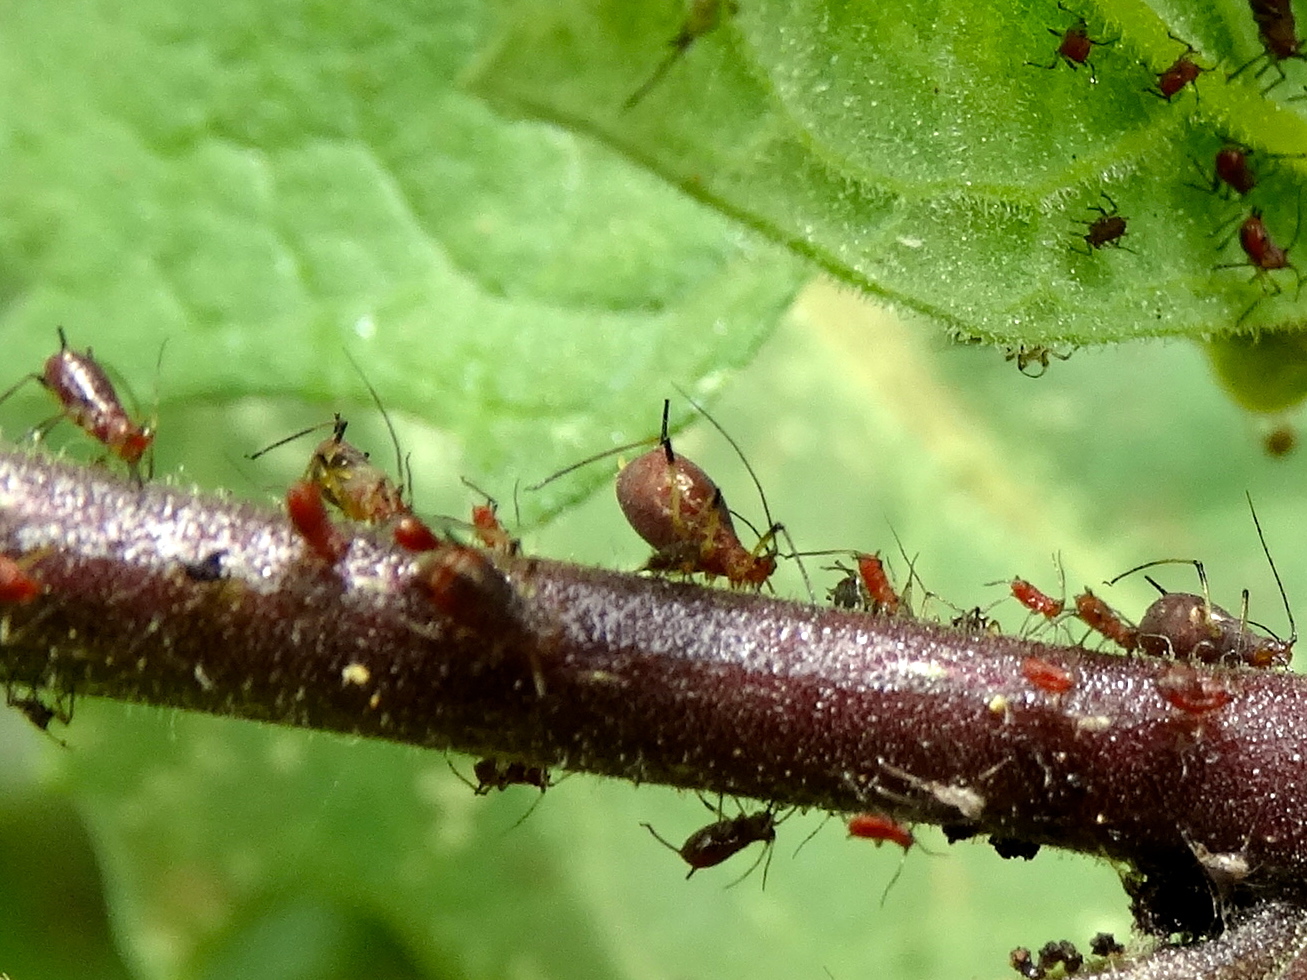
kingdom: Animalia
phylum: Arthropoda
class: Insecta
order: Hemiptera
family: Aphididae
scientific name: Aphididae
